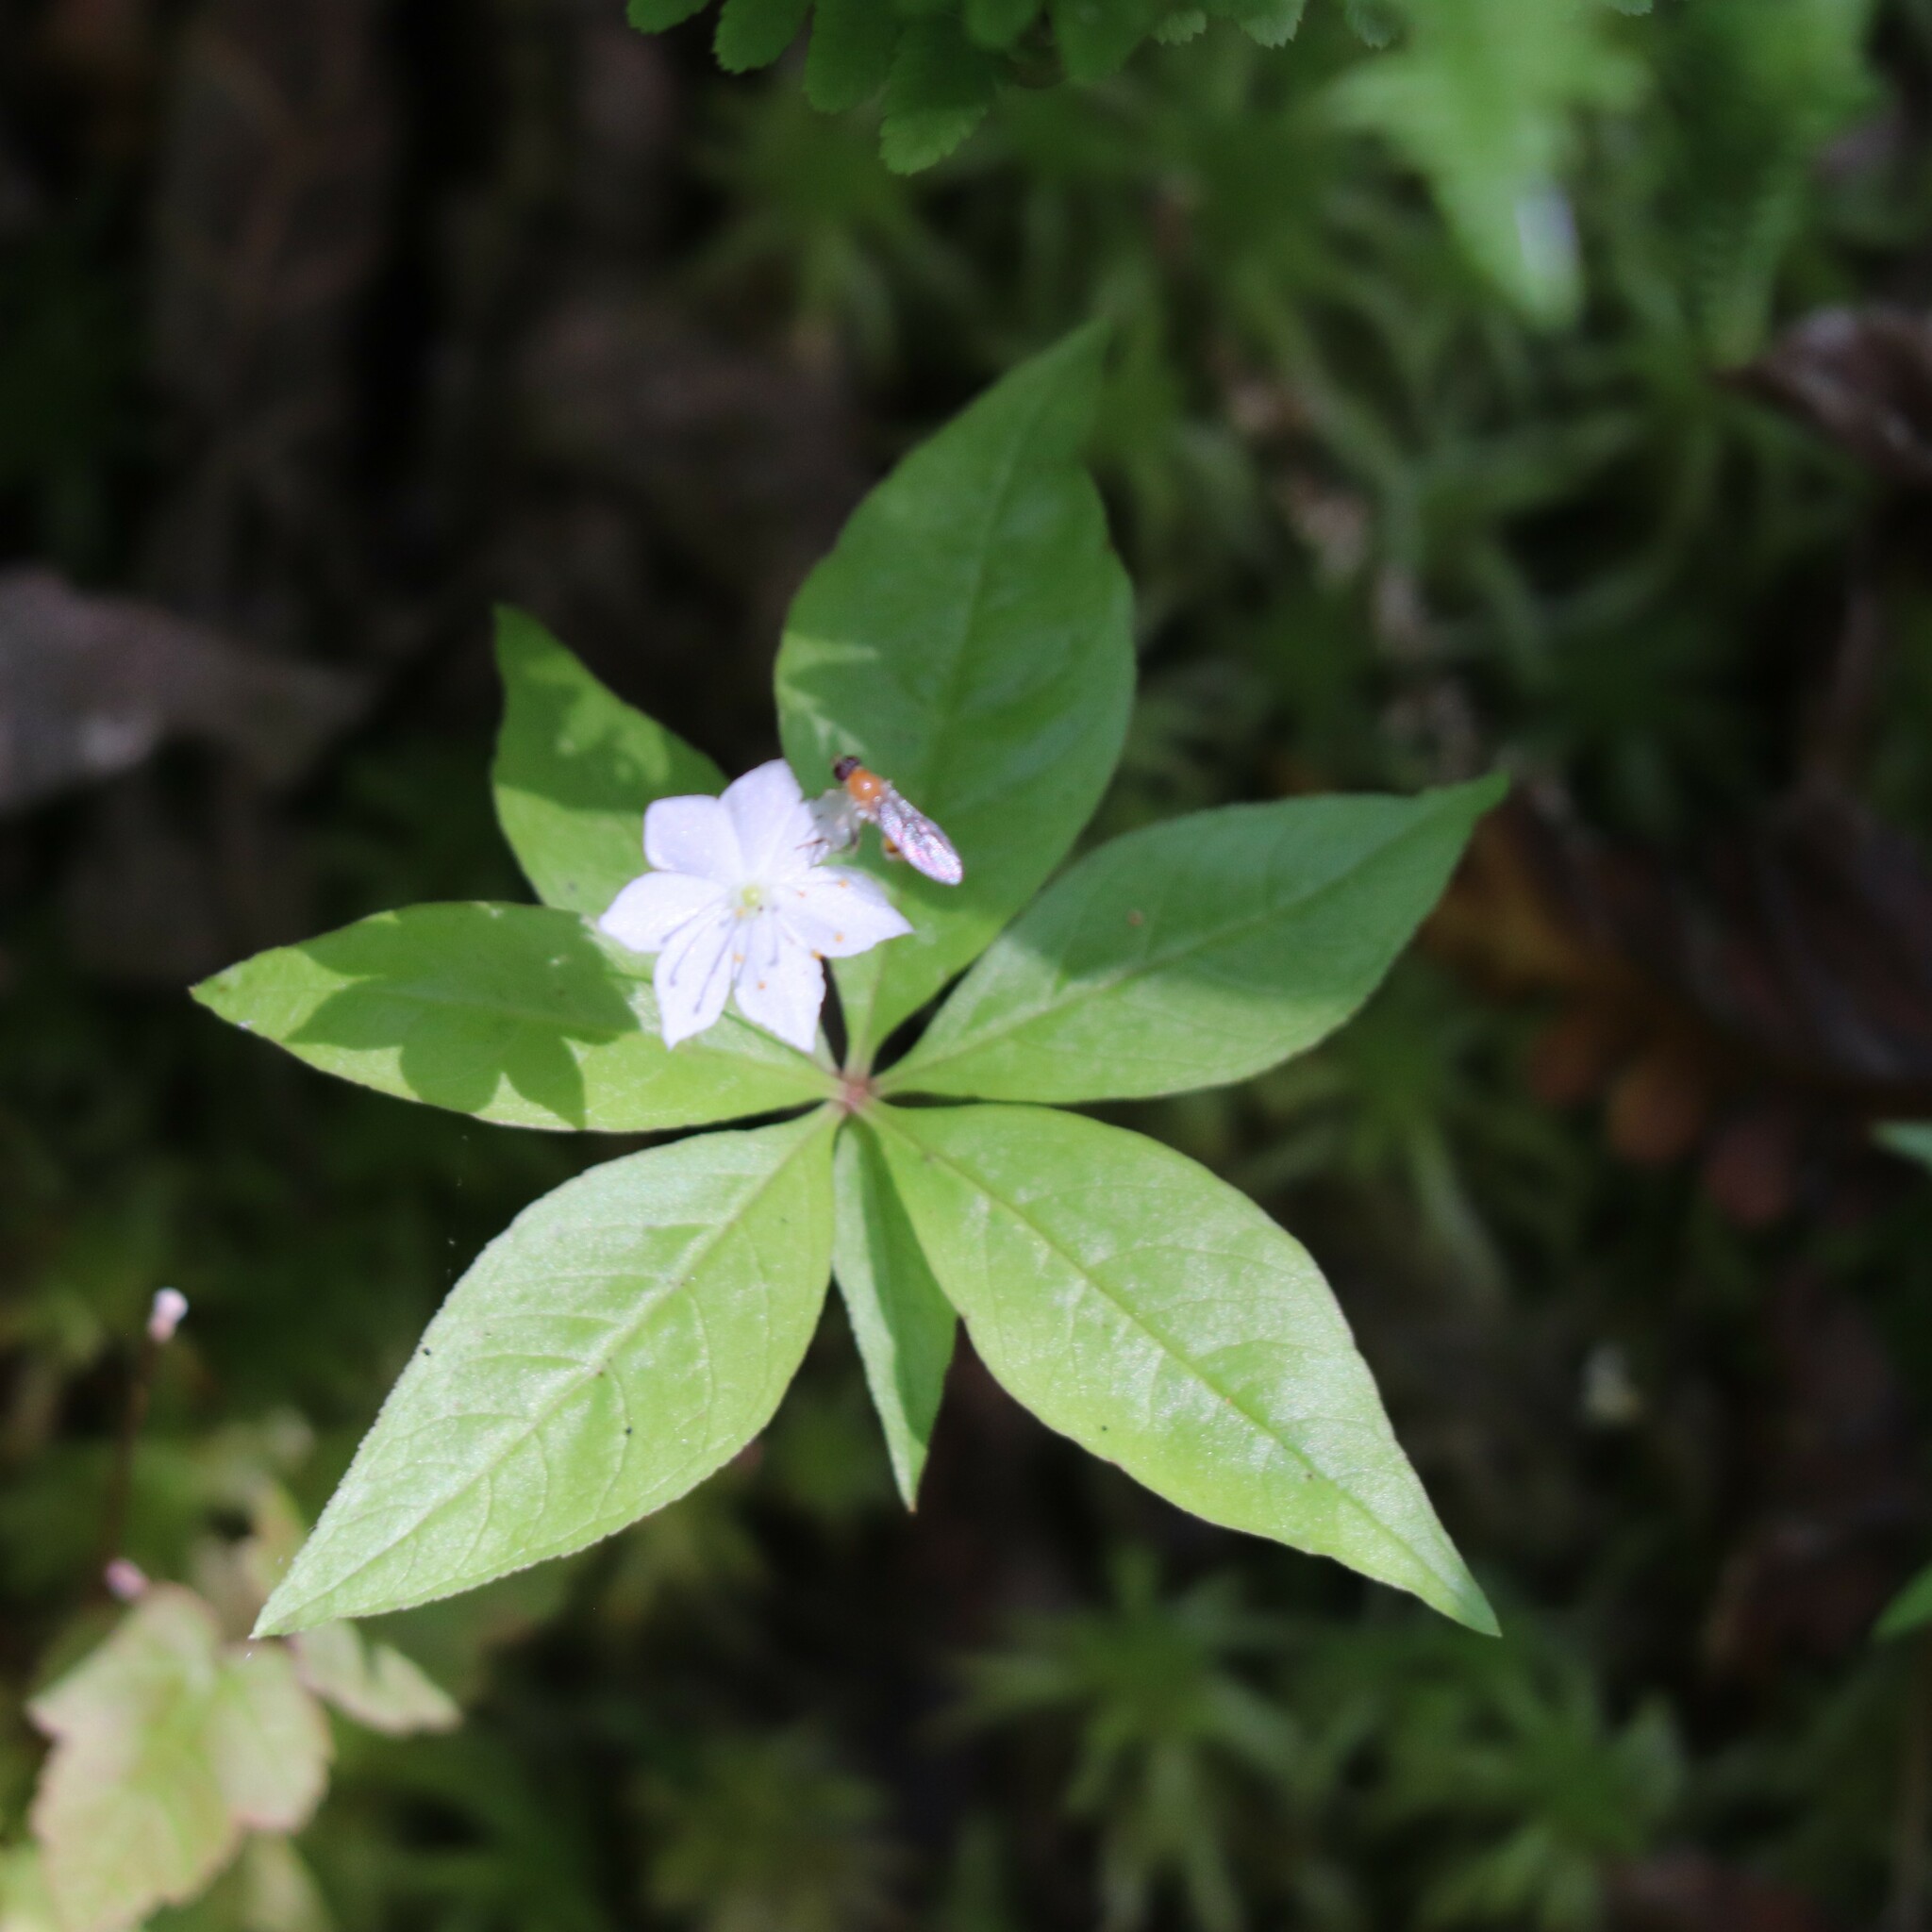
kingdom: Plantae
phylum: Tracheophyta
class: Magnoliopsida
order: Ericales
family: Primulaceae
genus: Lysimachia
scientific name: Lysimachia borealis
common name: American starflower
